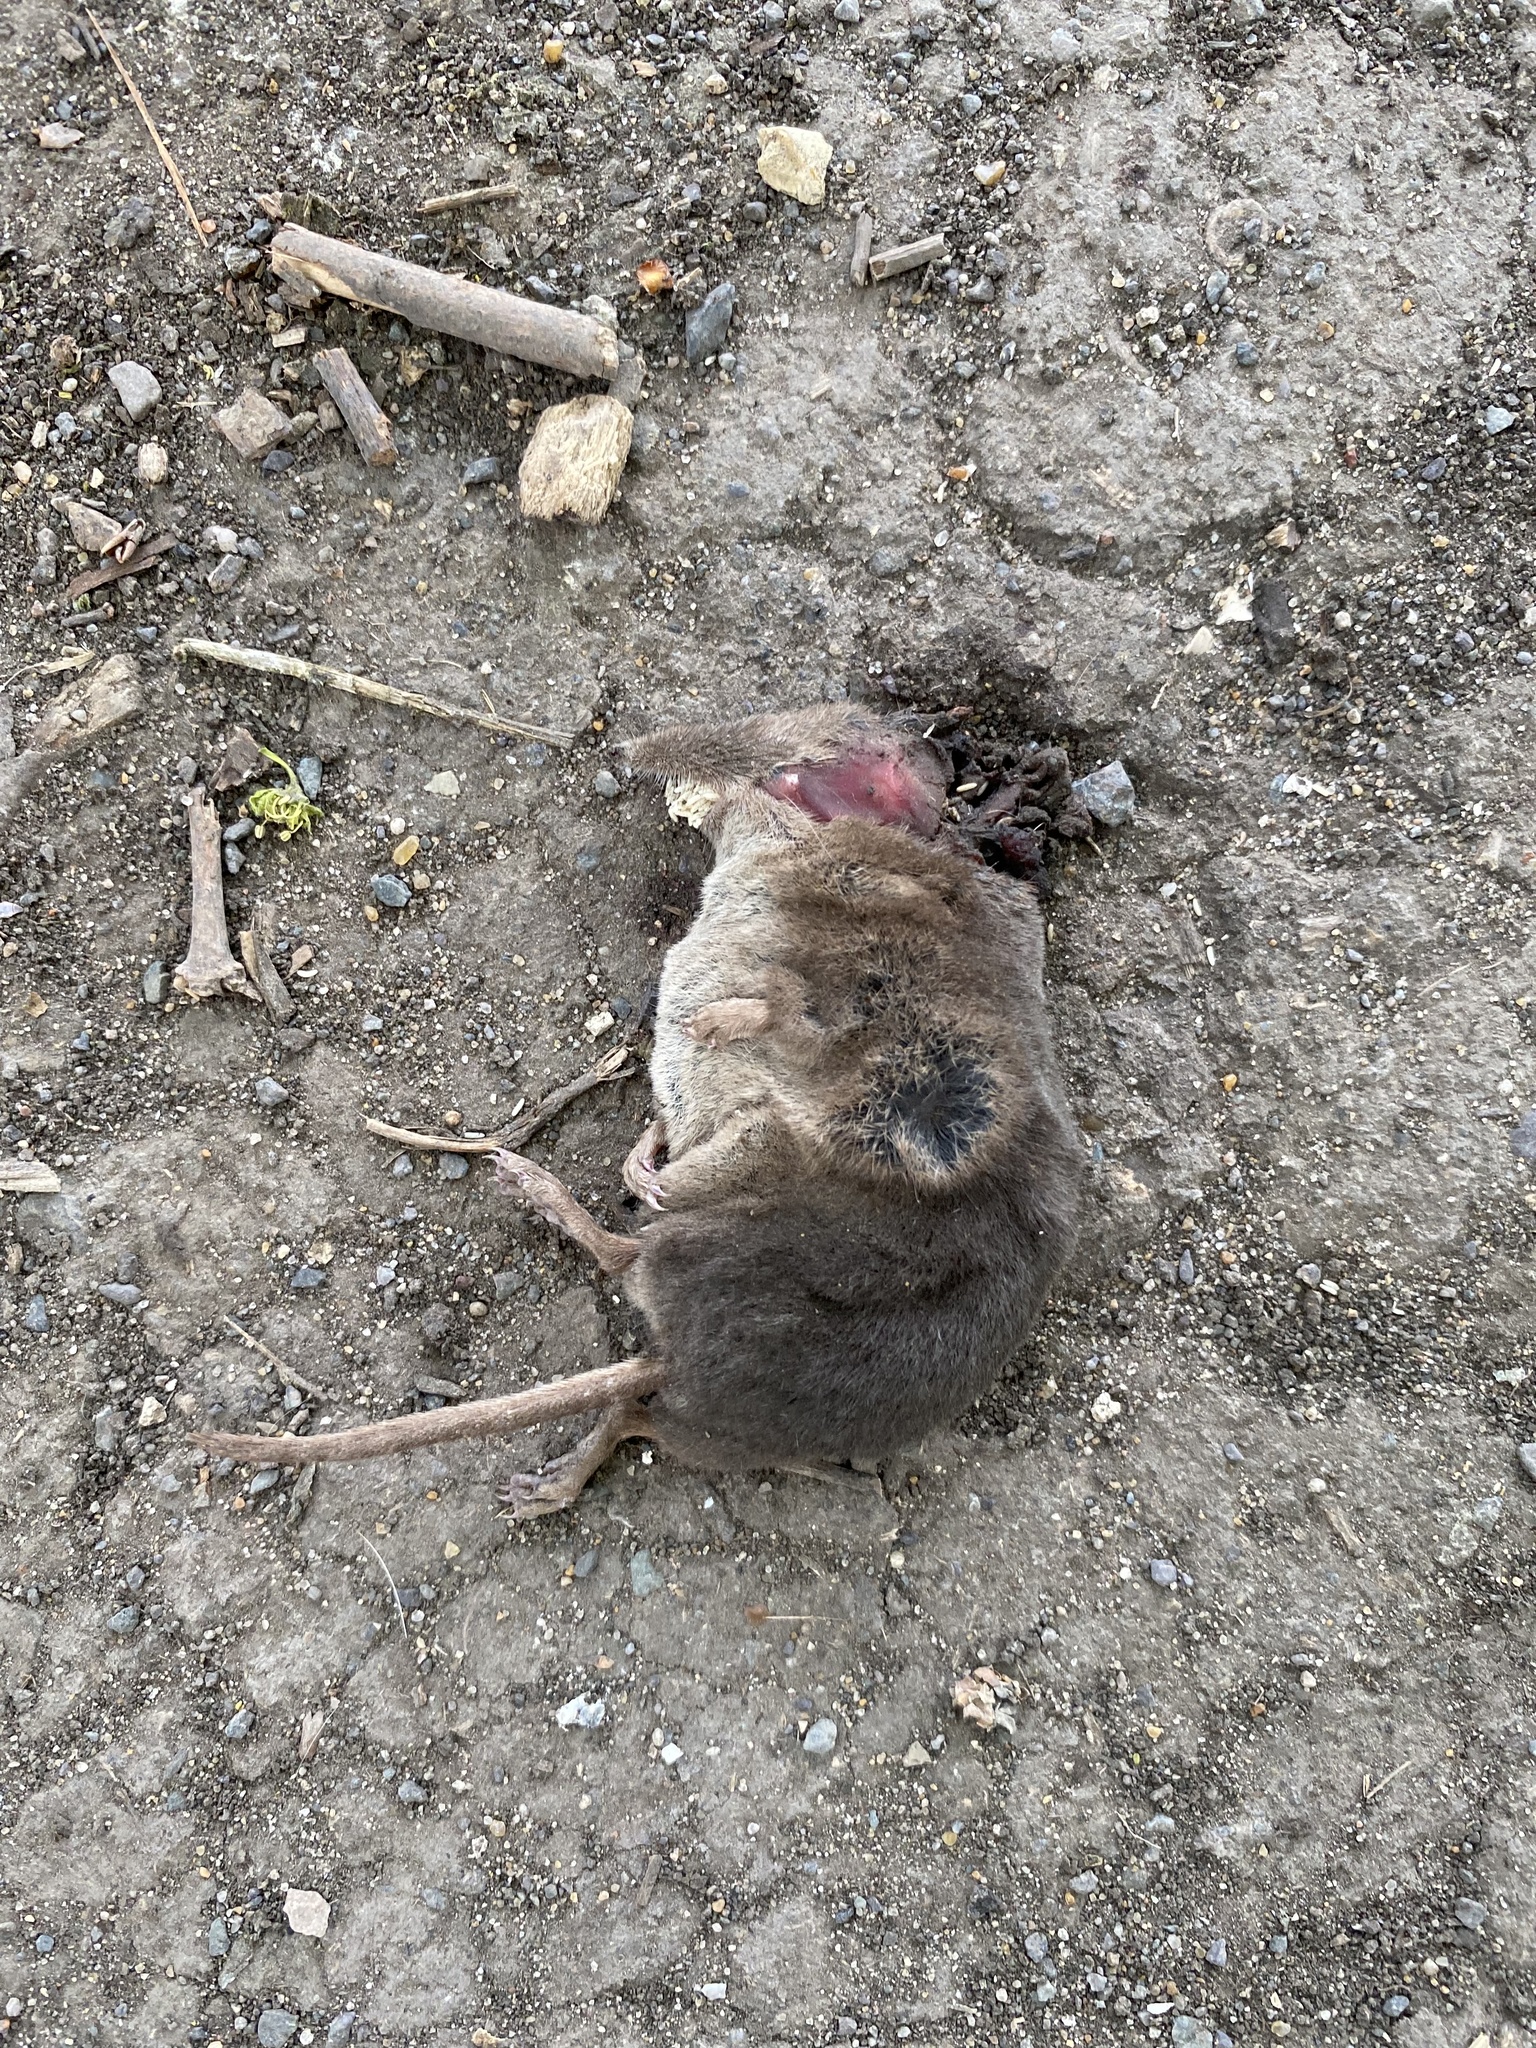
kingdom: Animalia
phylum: Chordata
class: Mammalia
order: Soricomorpha
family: Soricidae
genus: Sorex
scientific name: Sorex araneus
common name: Common shrew
